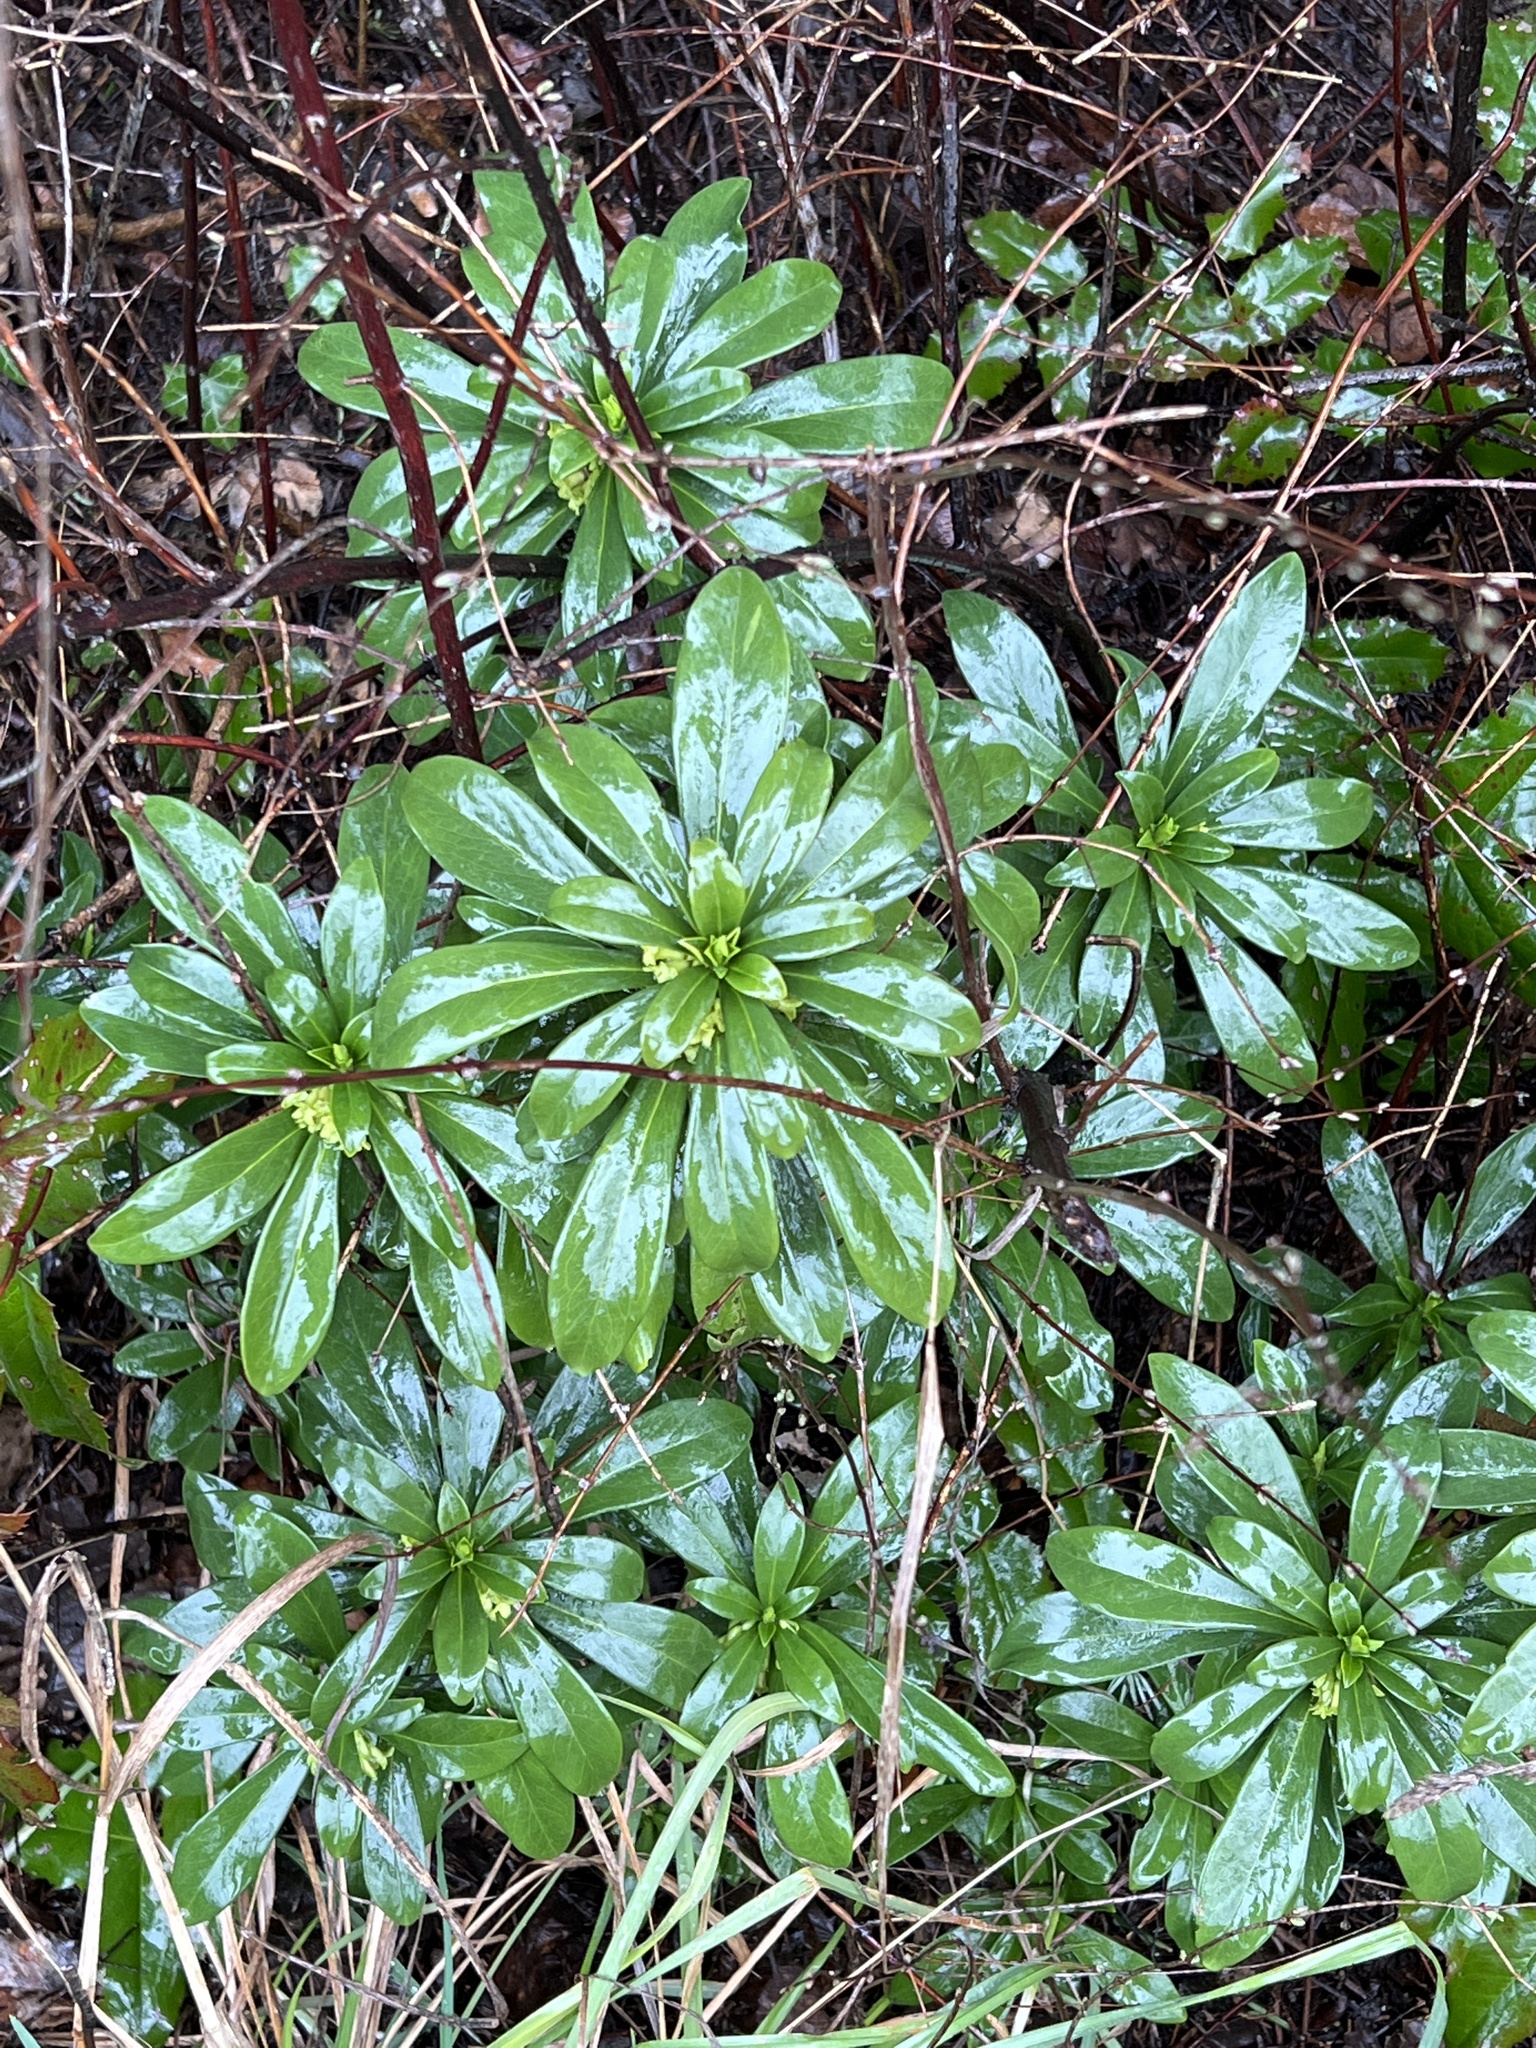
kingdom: Plantae
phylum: Tracheophyta
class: Magnoliopsida
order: Malvales
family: Thymelaeaceae
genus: Daphne
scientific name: Daphne laureola
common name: Spurge-laurel
